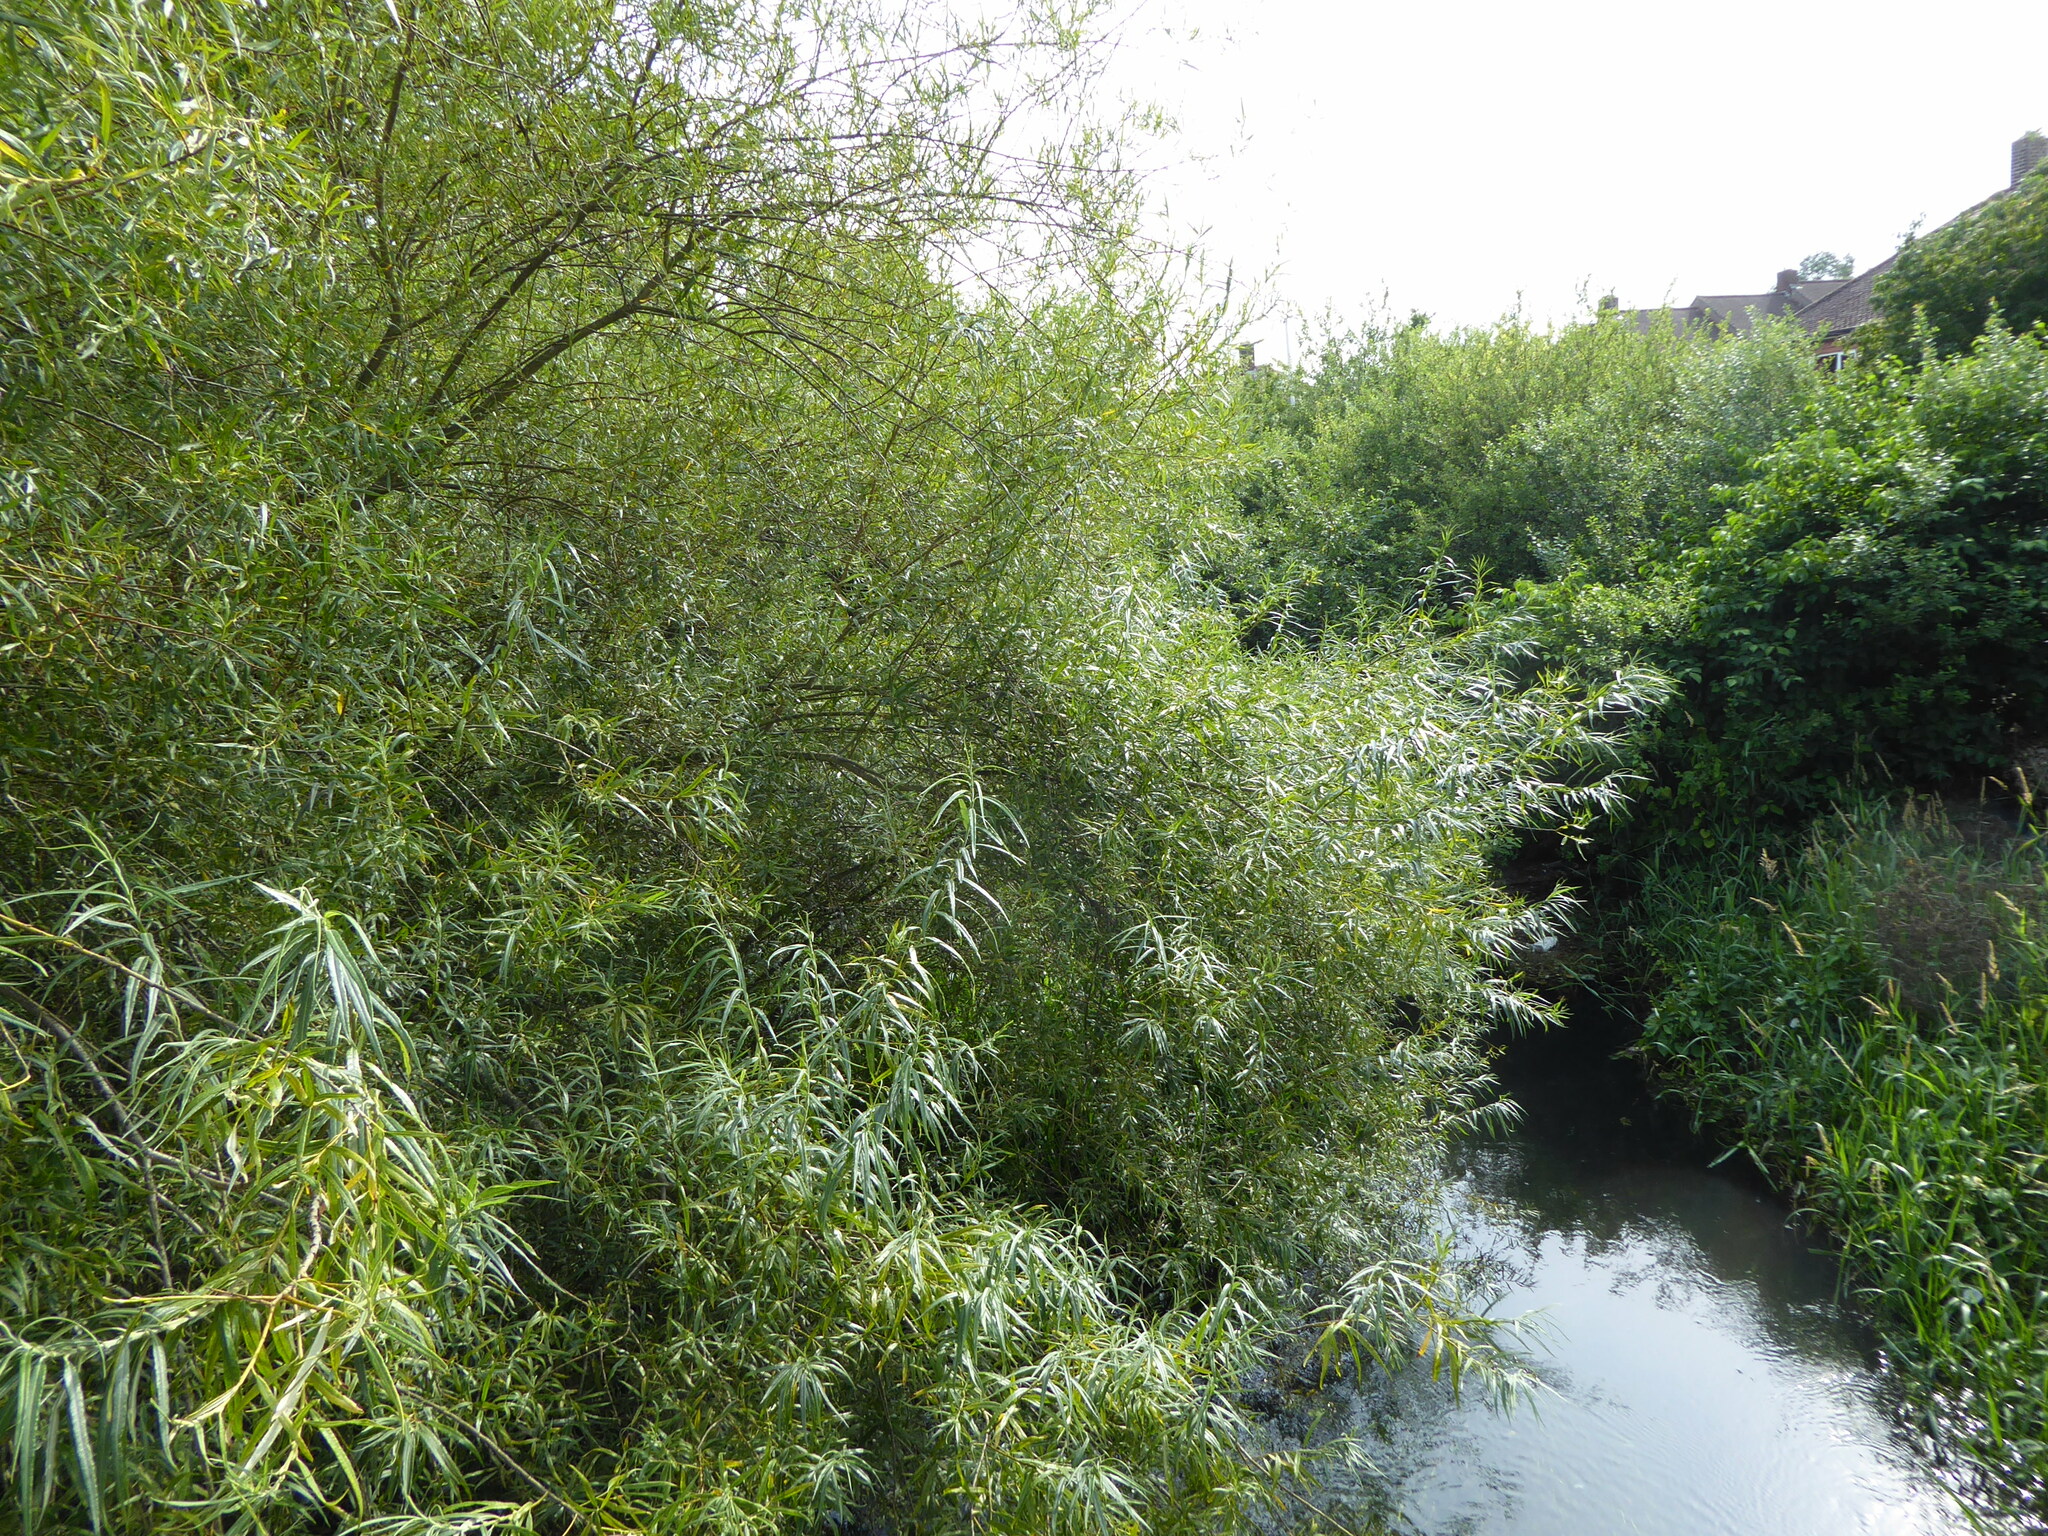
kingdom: Plantae
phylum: Tracheophyta
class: Magnoliopsida
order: Malpighiales
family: Salicaceae
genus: Salix
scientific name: Salix viminalis
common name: Osier
